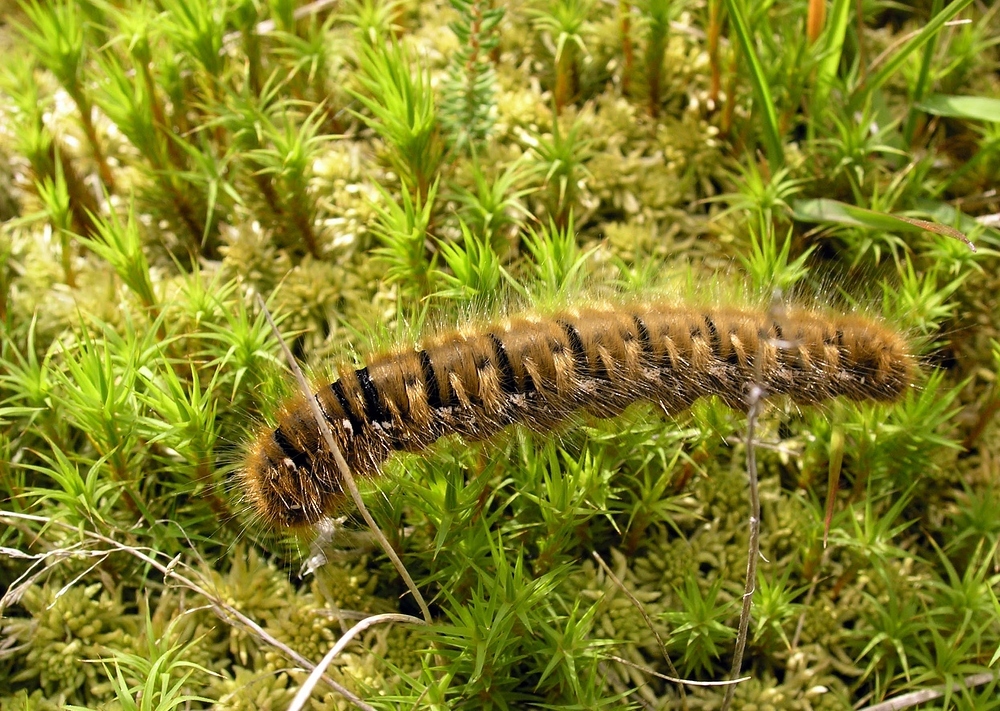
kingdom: Animalia
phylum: Arthropoda
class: Insecta
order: Lepidoptera
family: Lasiocampidae
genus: Lasiocampa
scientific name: Lasiocampa quercus
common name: Oak eggar
